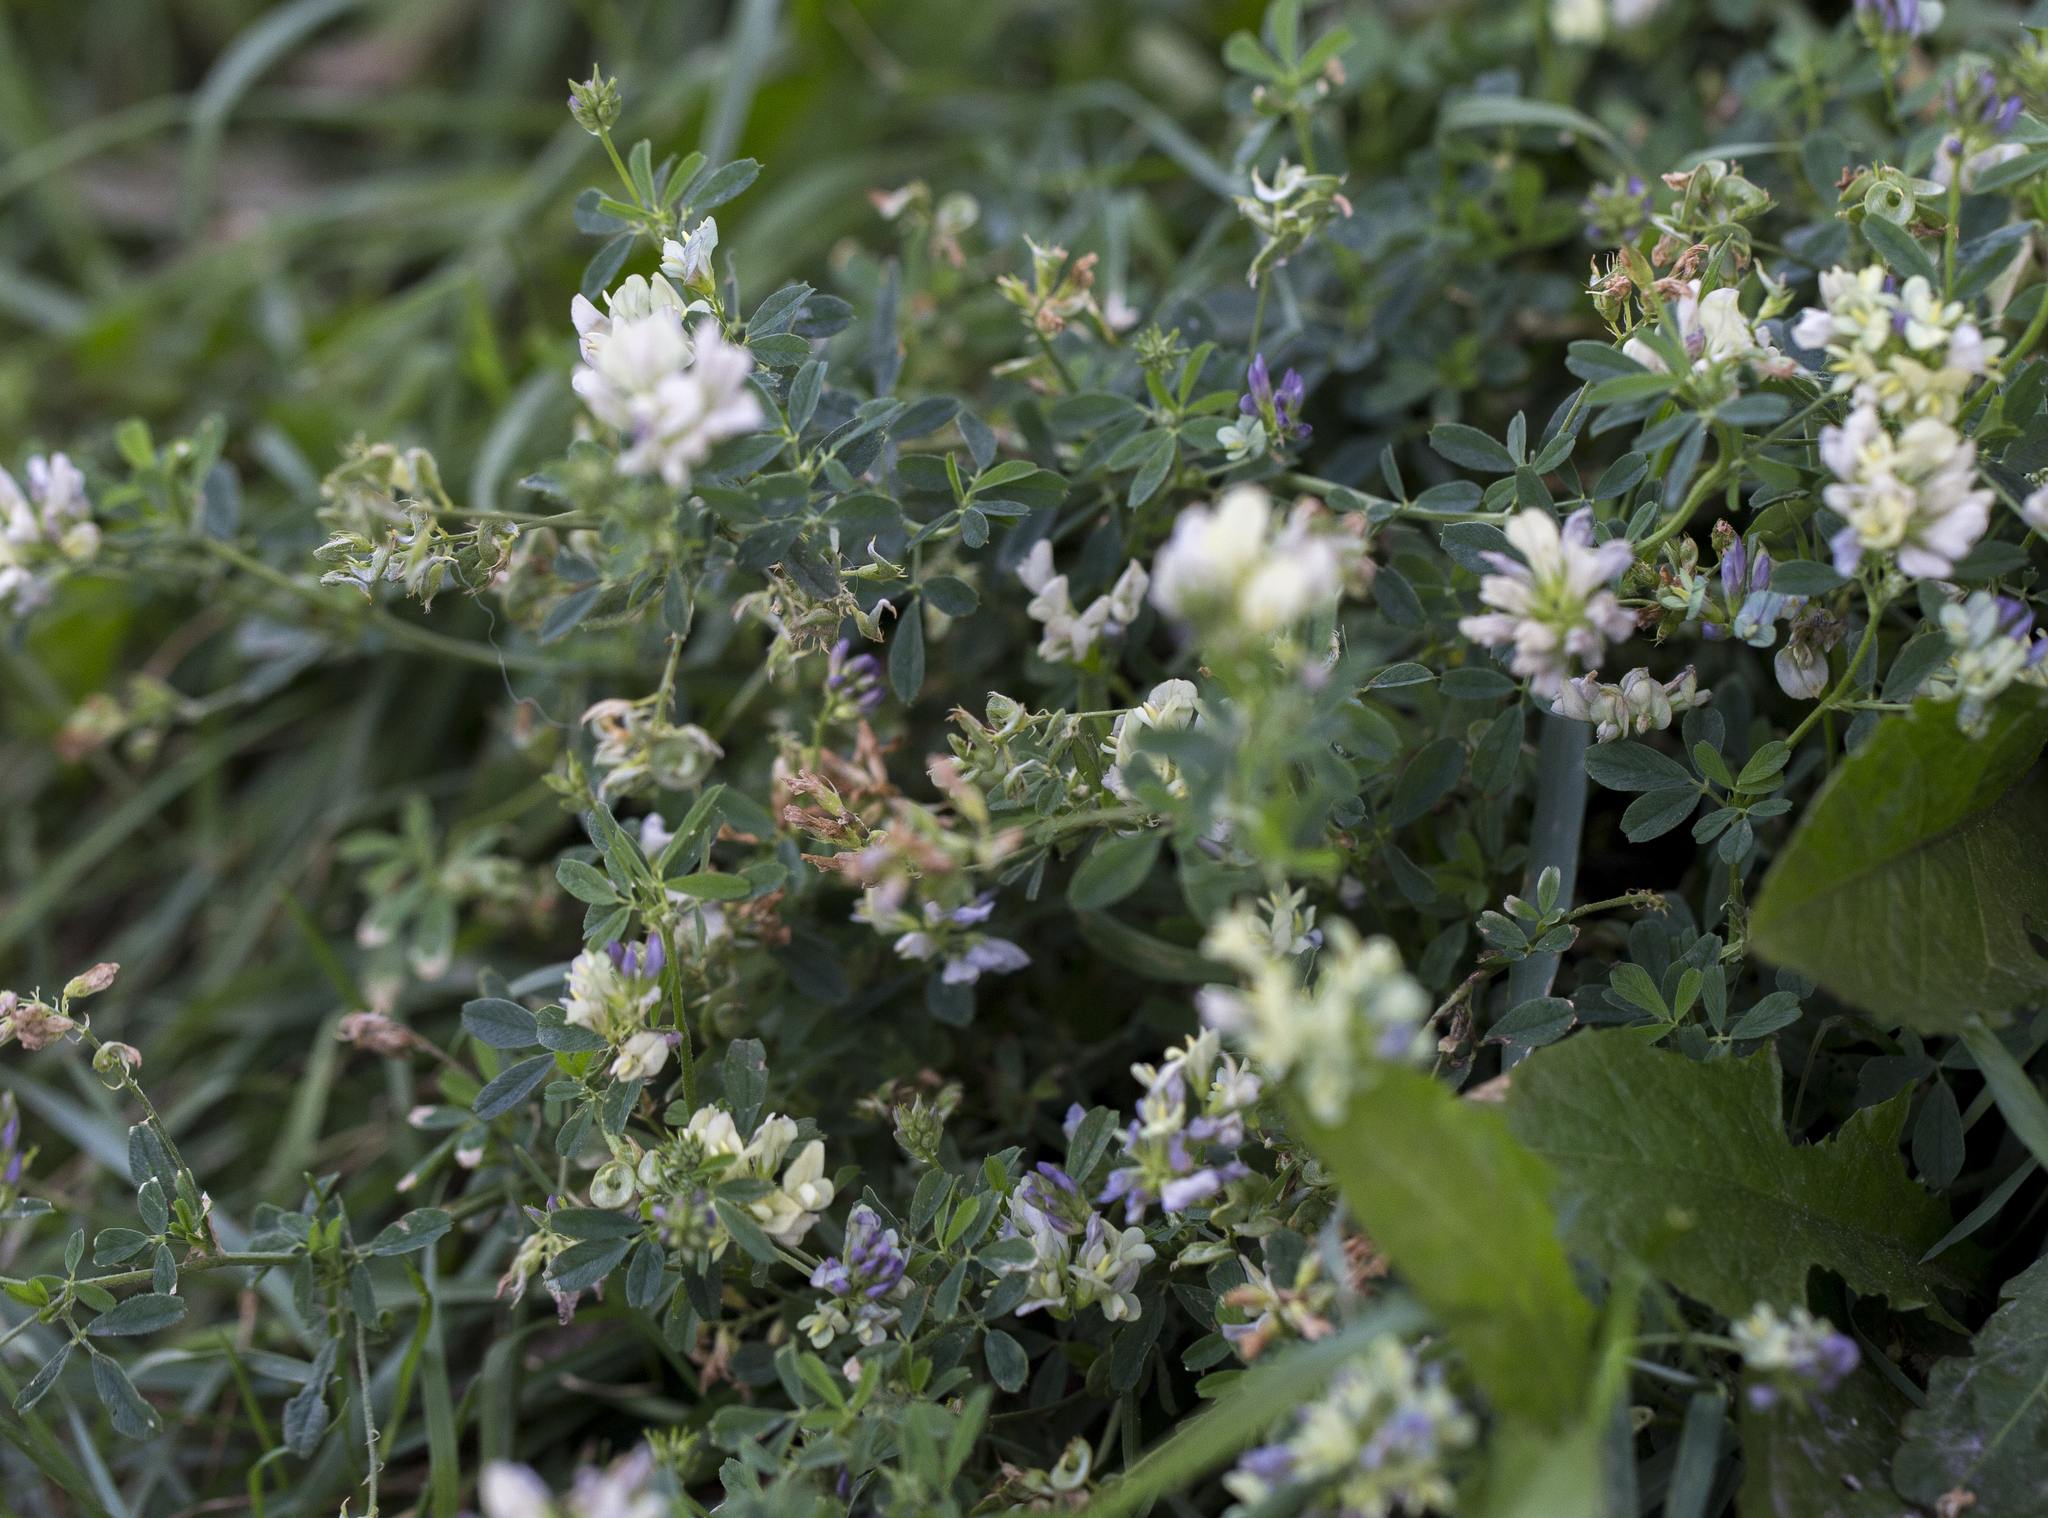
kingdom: Plantae
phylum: Tracheophyta
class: Magnoliopsida
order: Fabales
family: Fabaceae
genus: Medicago
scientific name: Medicago varia
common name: Sand lucerne
